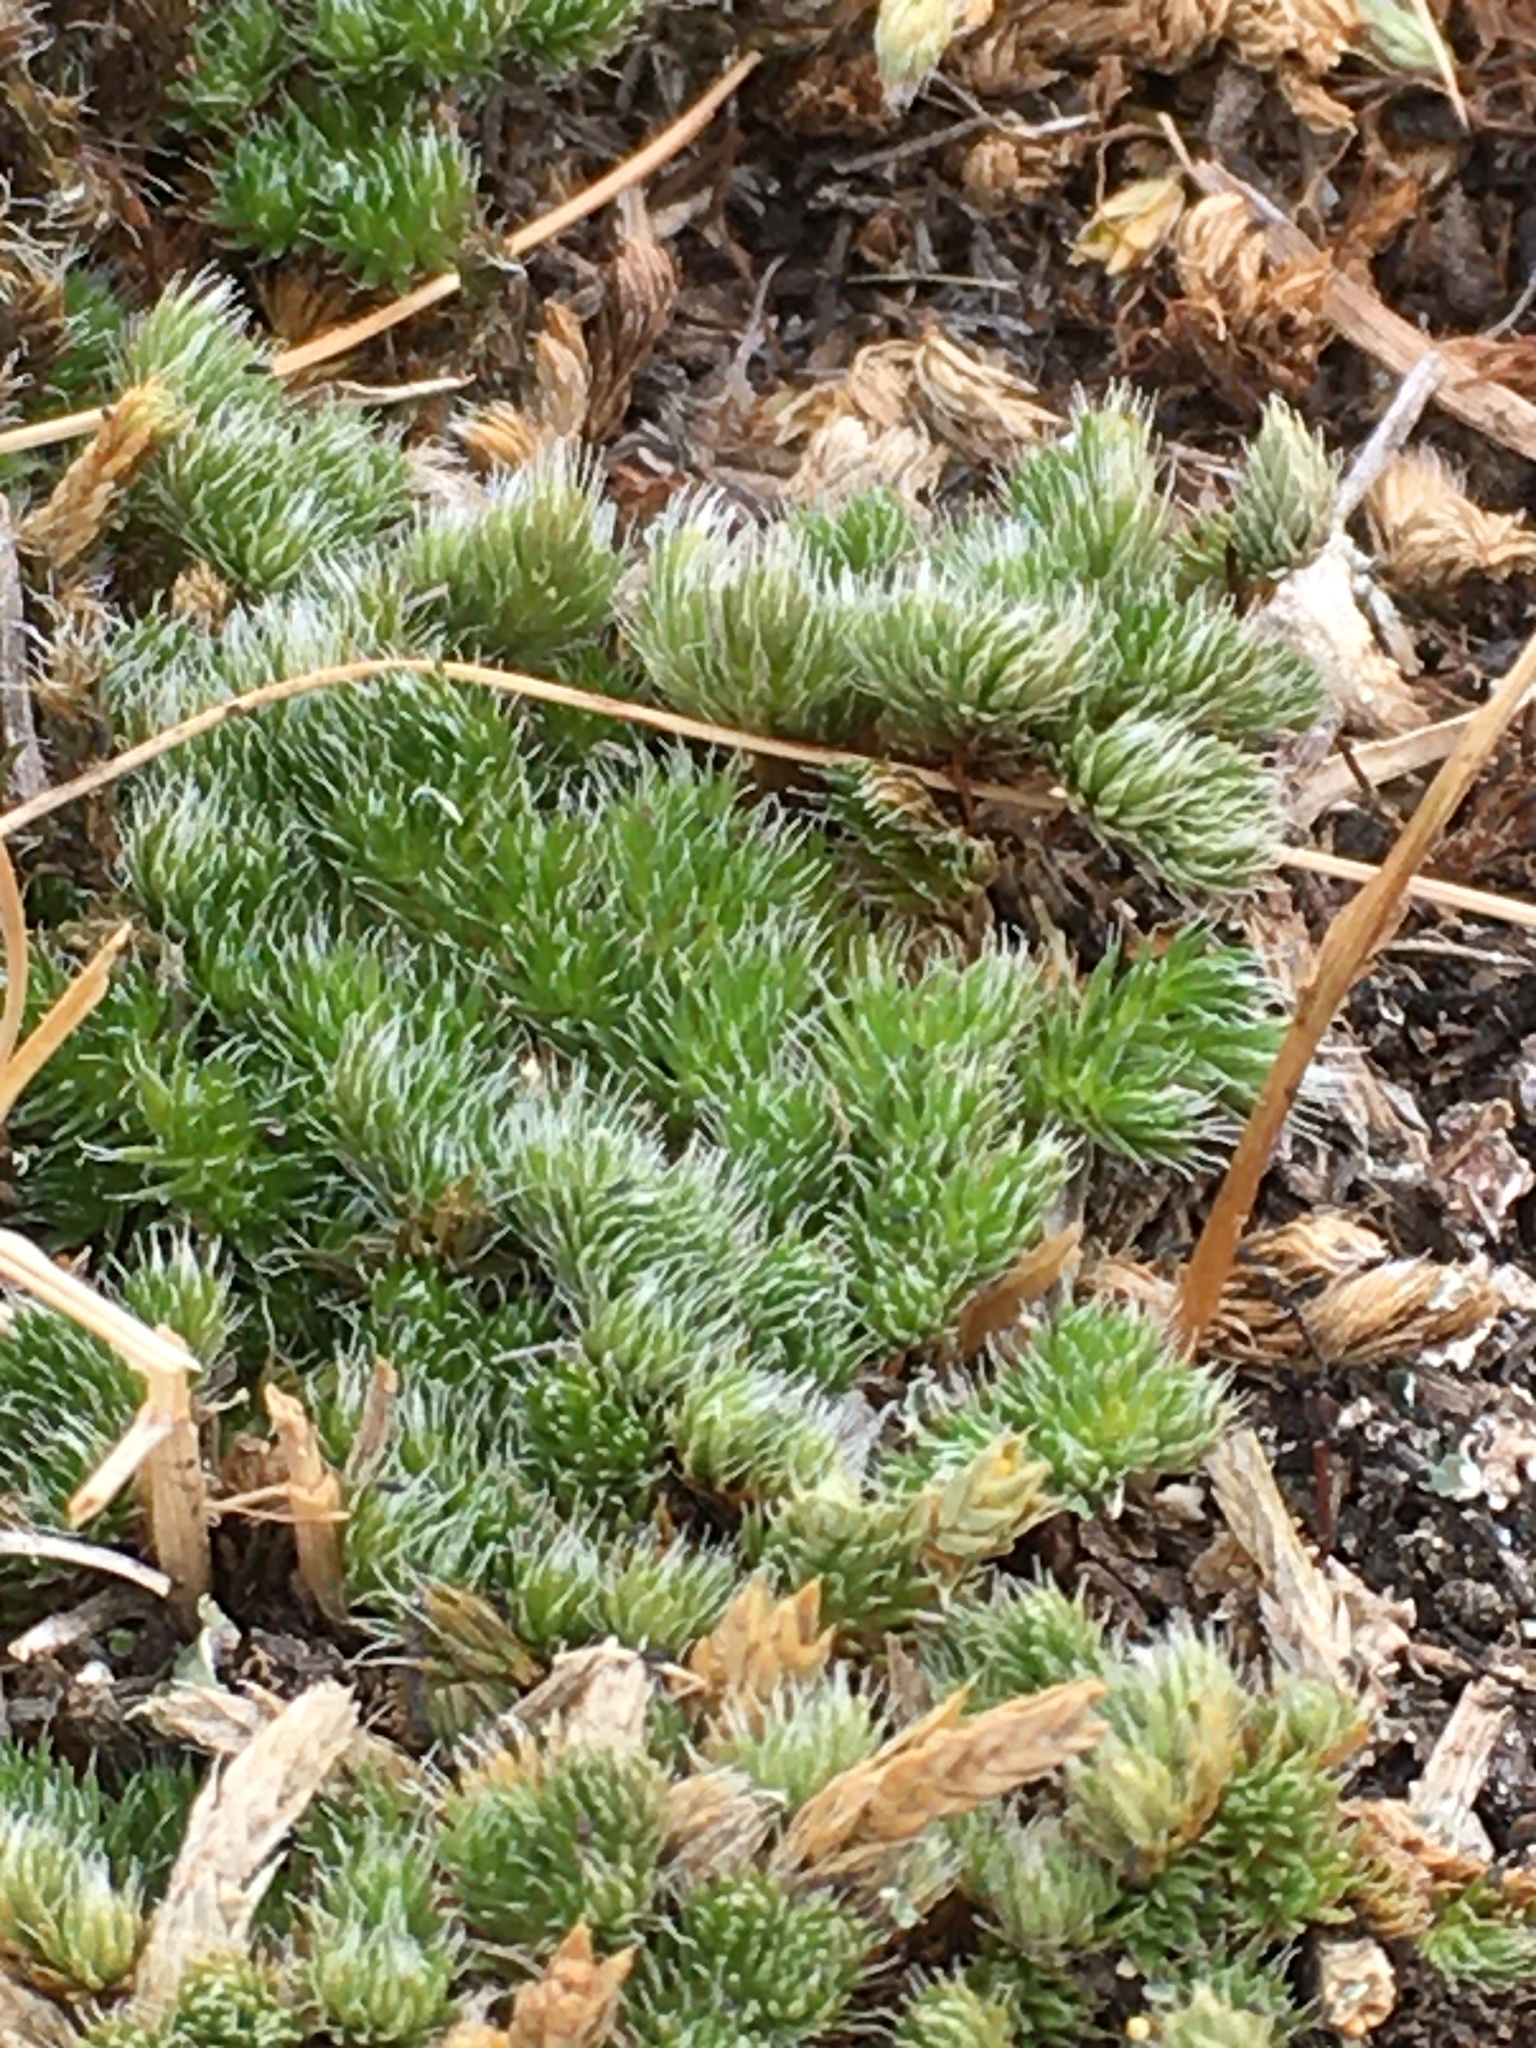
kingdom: Plantae
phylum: Tracheophyta
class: Lycopodiopsida
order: Selaginellales
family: Selaginellaceae
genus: Selaginella
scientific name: Selaginella densa
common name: Mountain spike-moss
